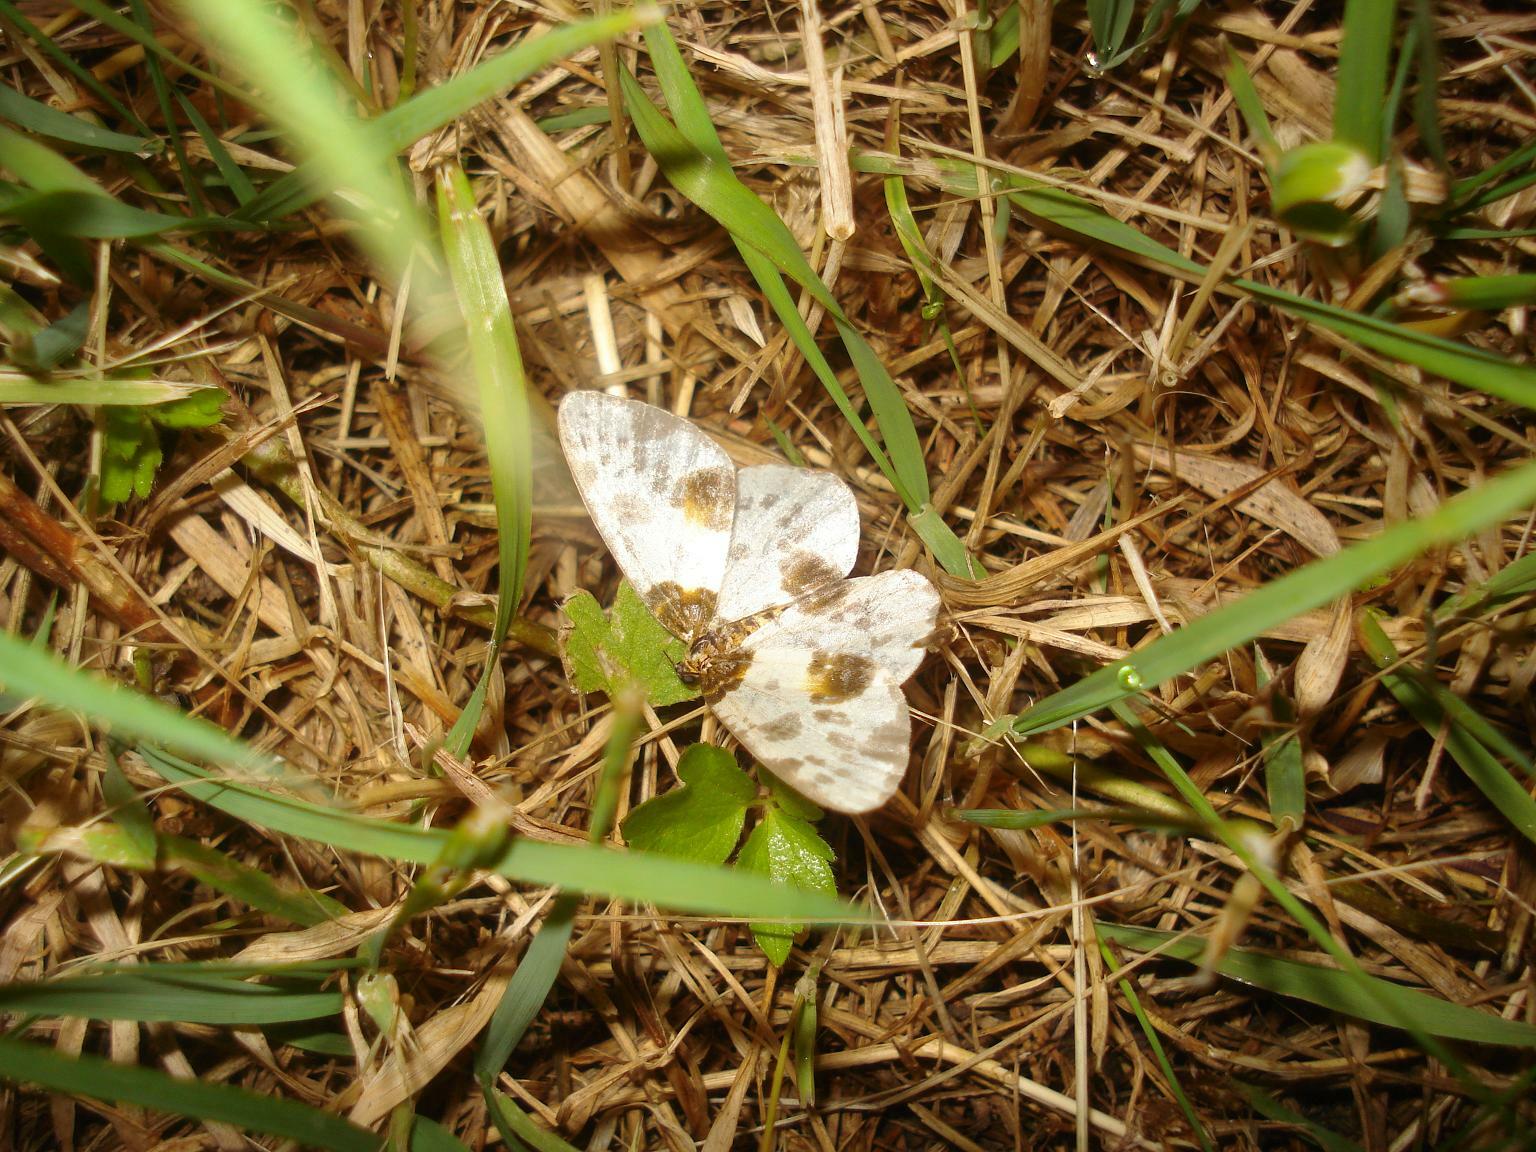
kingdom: Animalia
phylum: Arthropoda
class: Insecta
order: Lepidoptera
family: Geometridae
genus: Abraxas
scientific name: Abraxas sylvata
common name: Clouded magpie
